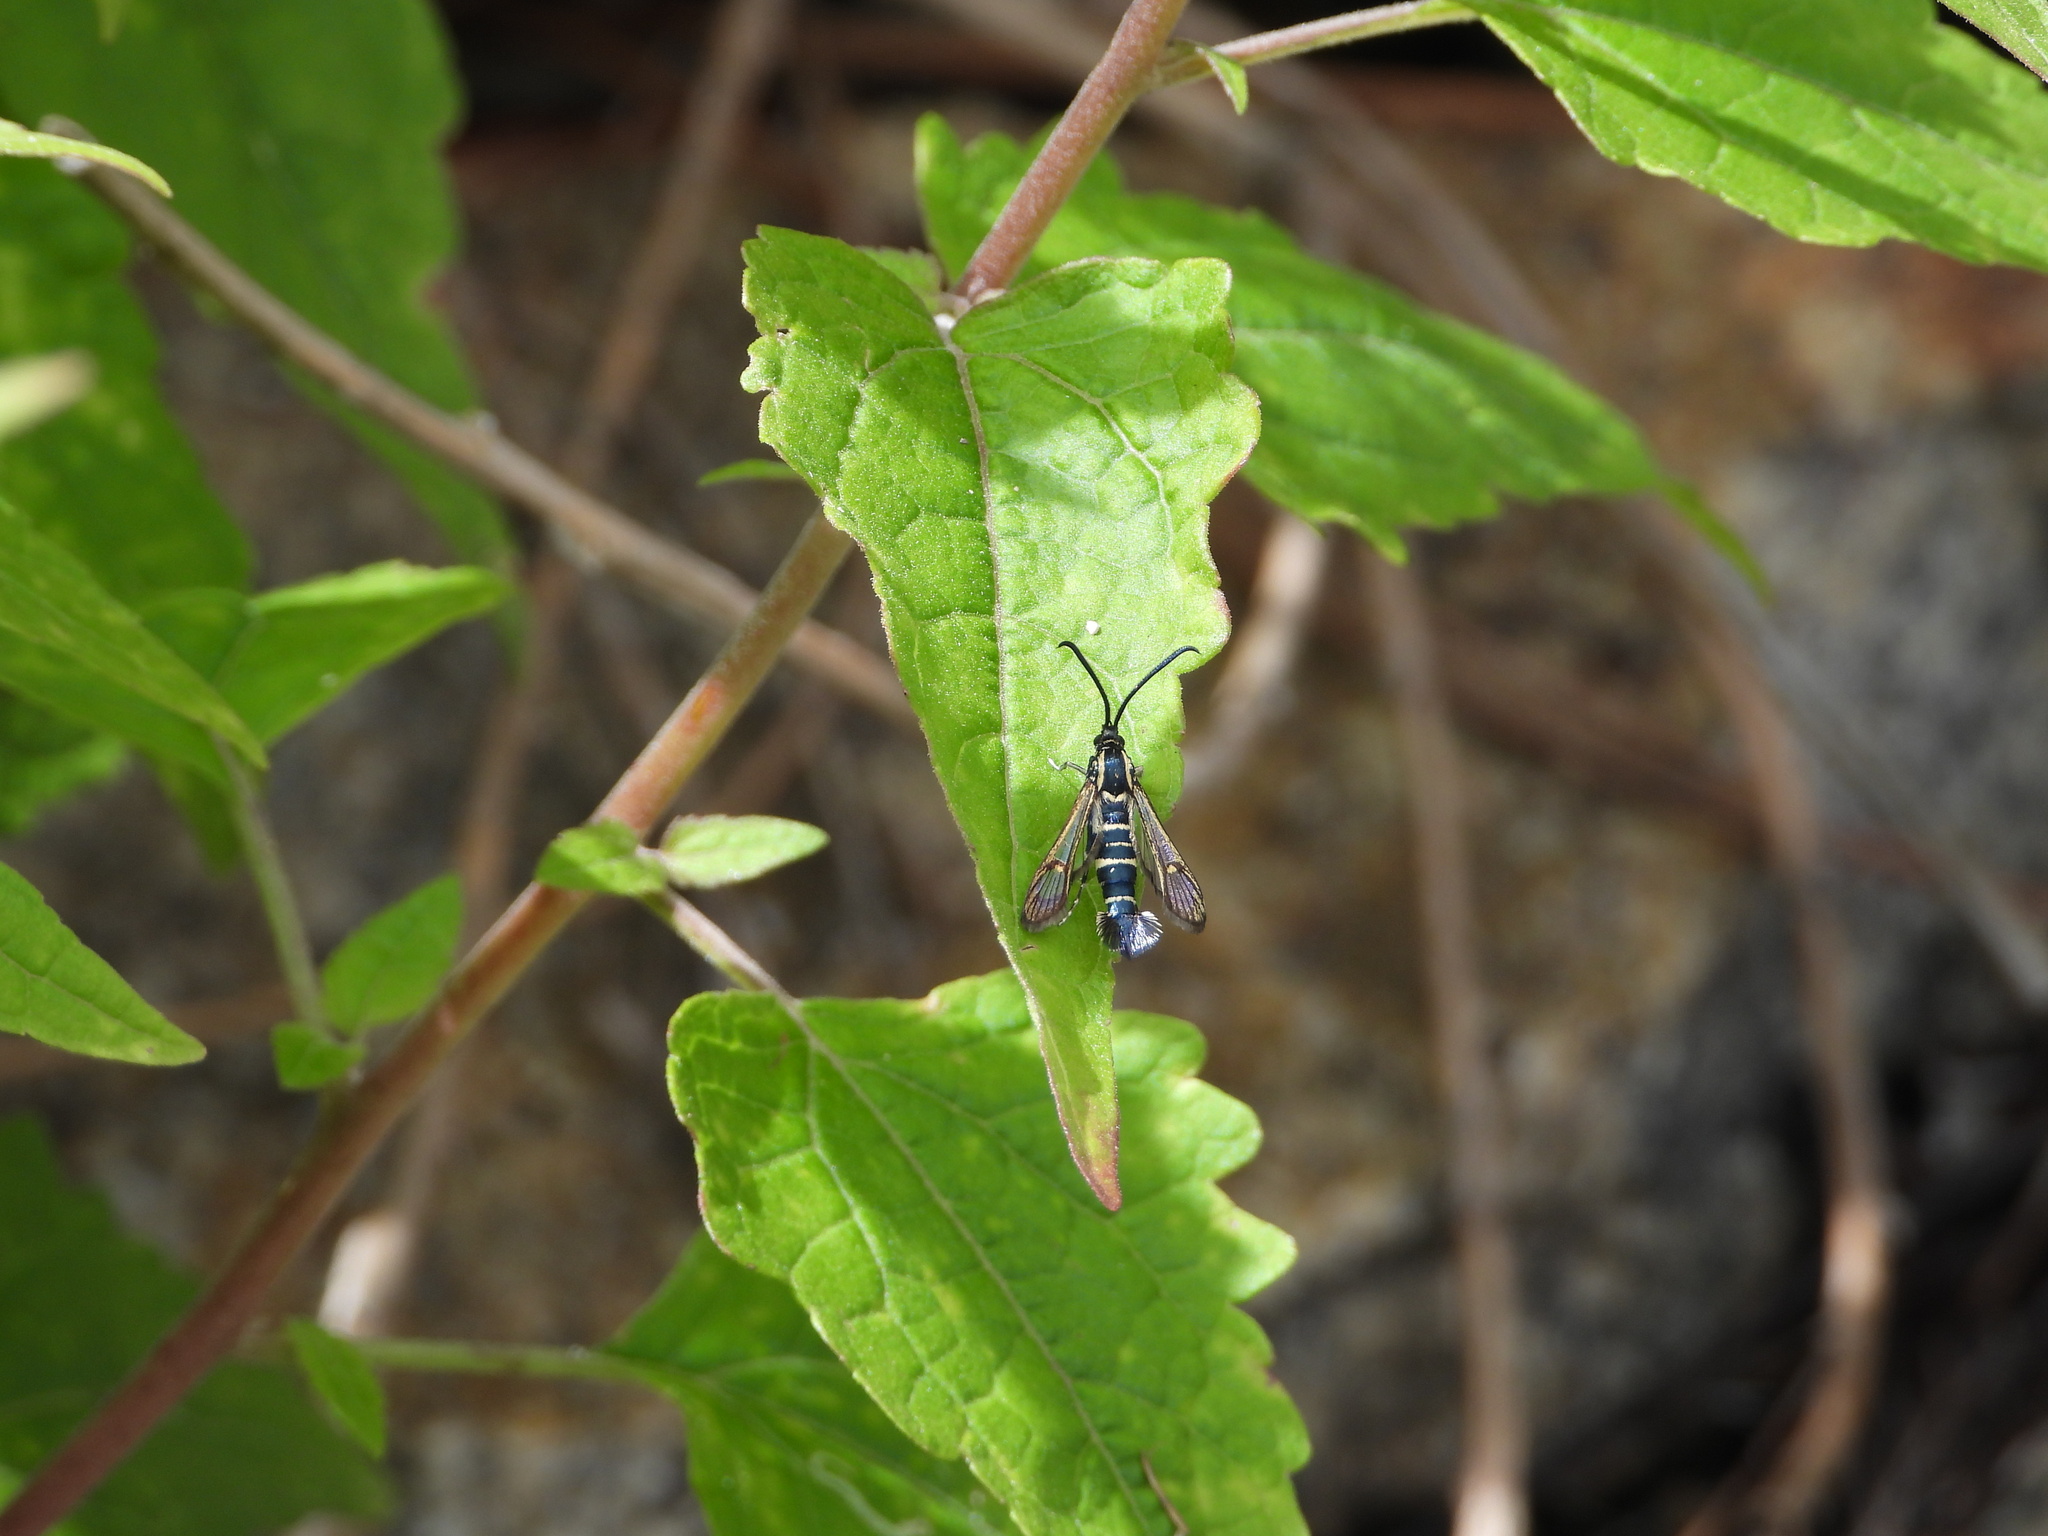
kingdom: Animalia
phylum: Arthropoda
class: Insecta
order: Lepidoptera
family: Sesiidae
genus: Carmenta
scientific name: Carmenta engelhardti
